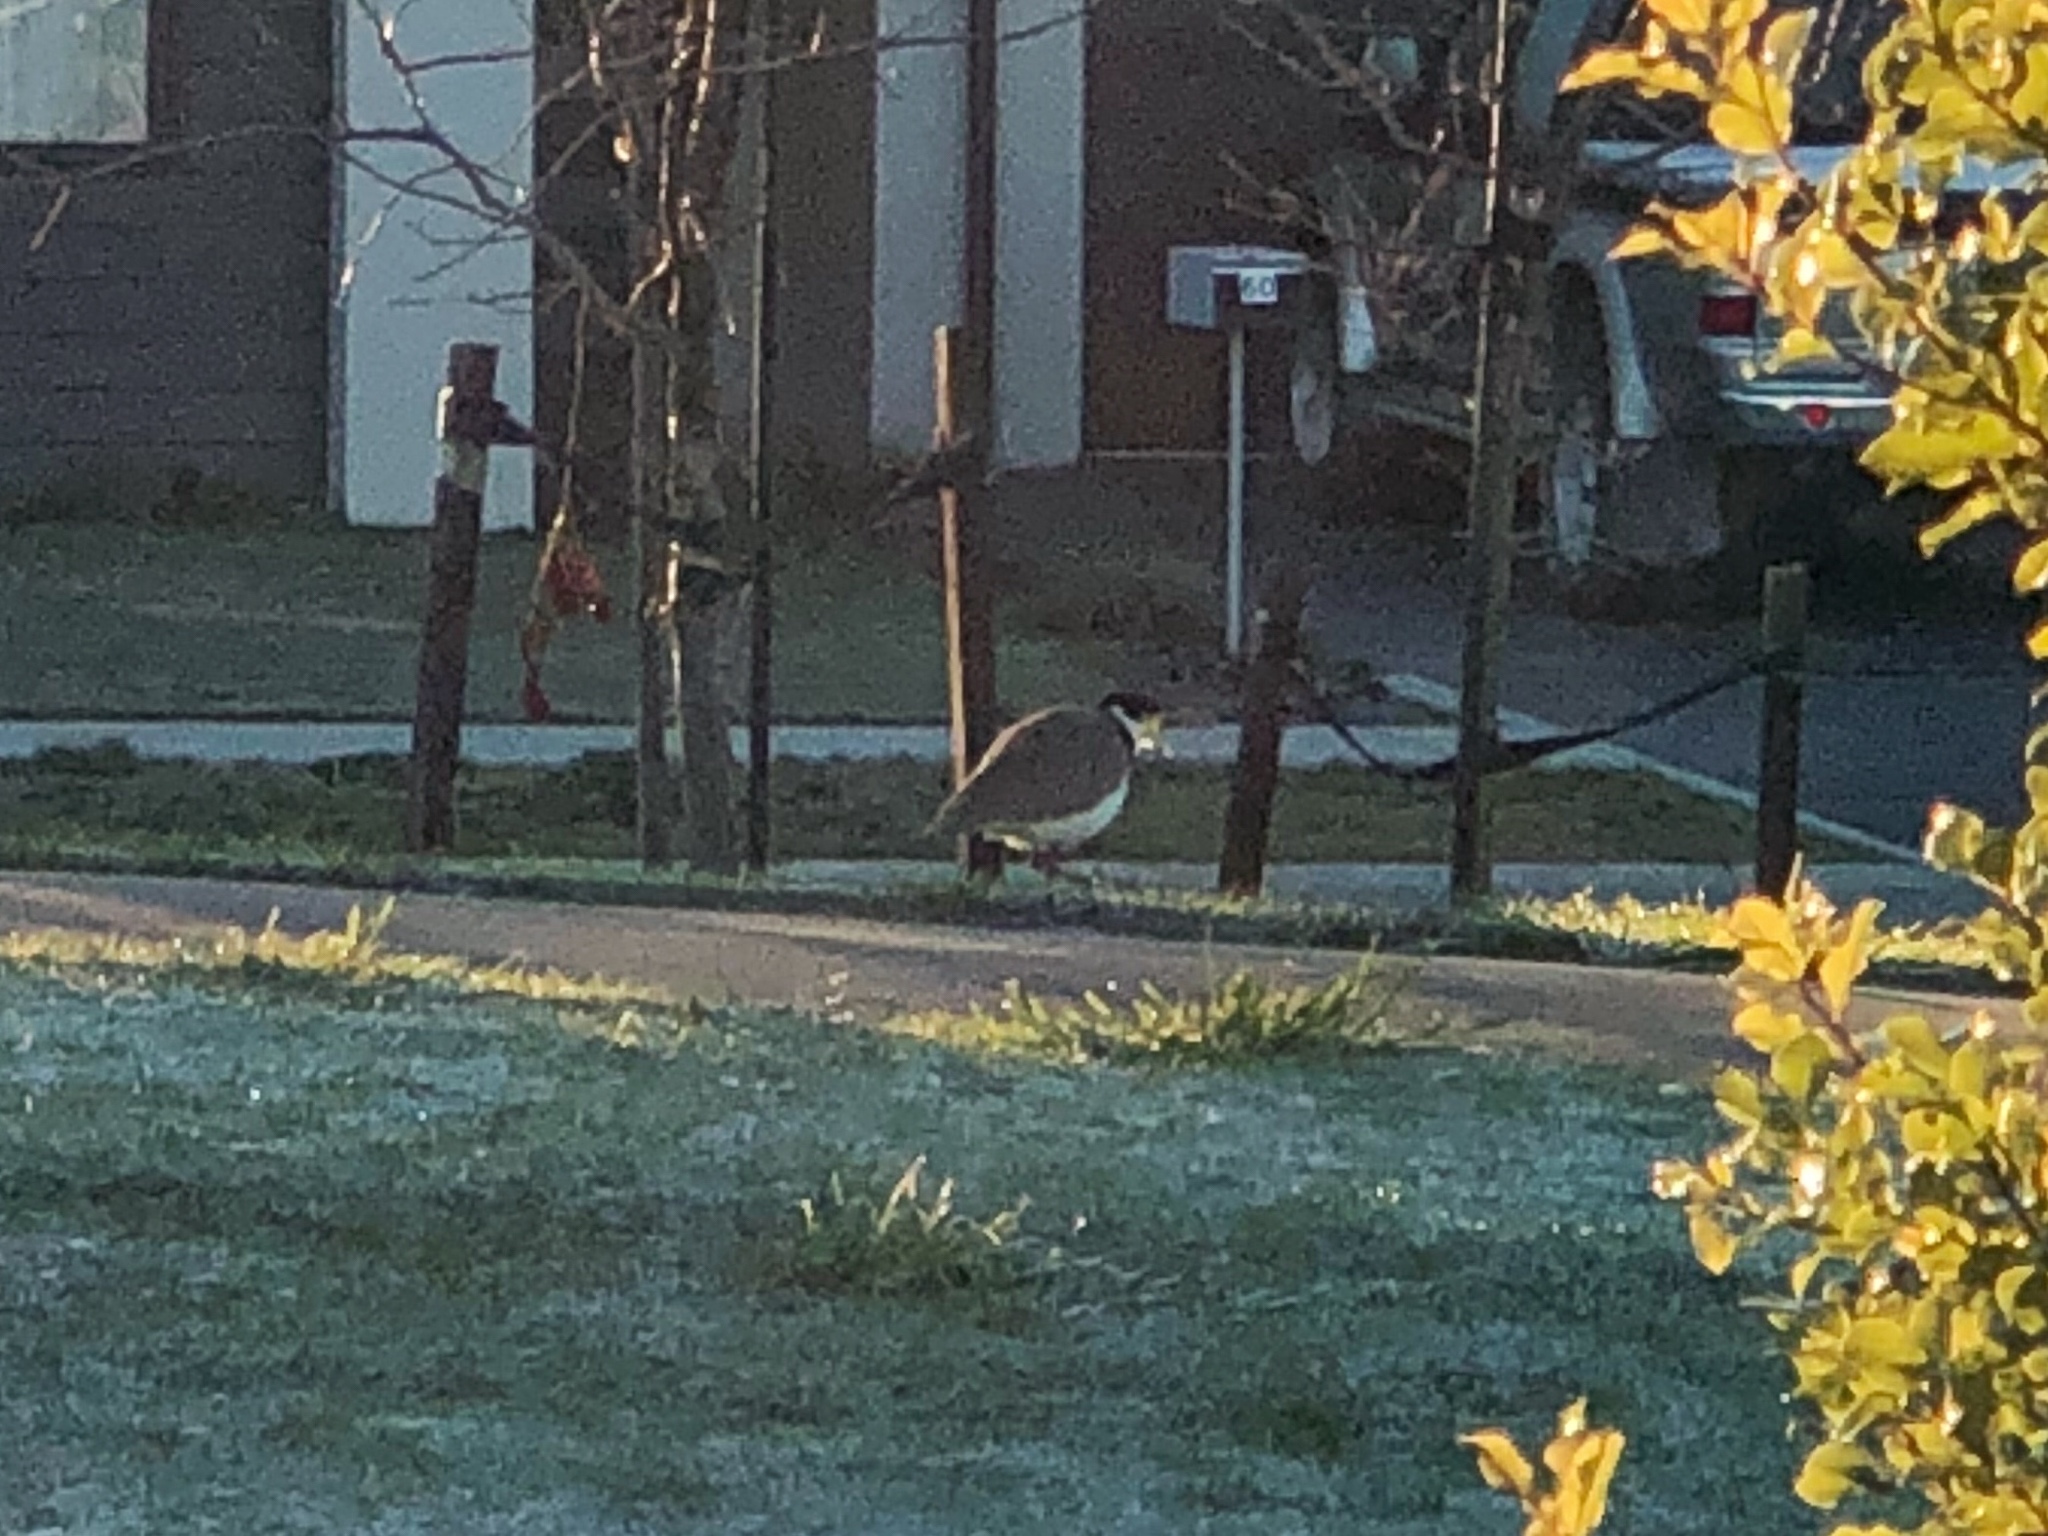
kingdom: Animalia
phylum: Chordata
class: Aves
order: Charadriiformes
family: Charadriidae
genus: Vanellus
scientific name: Vanellus miles
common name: Masked lapwing
